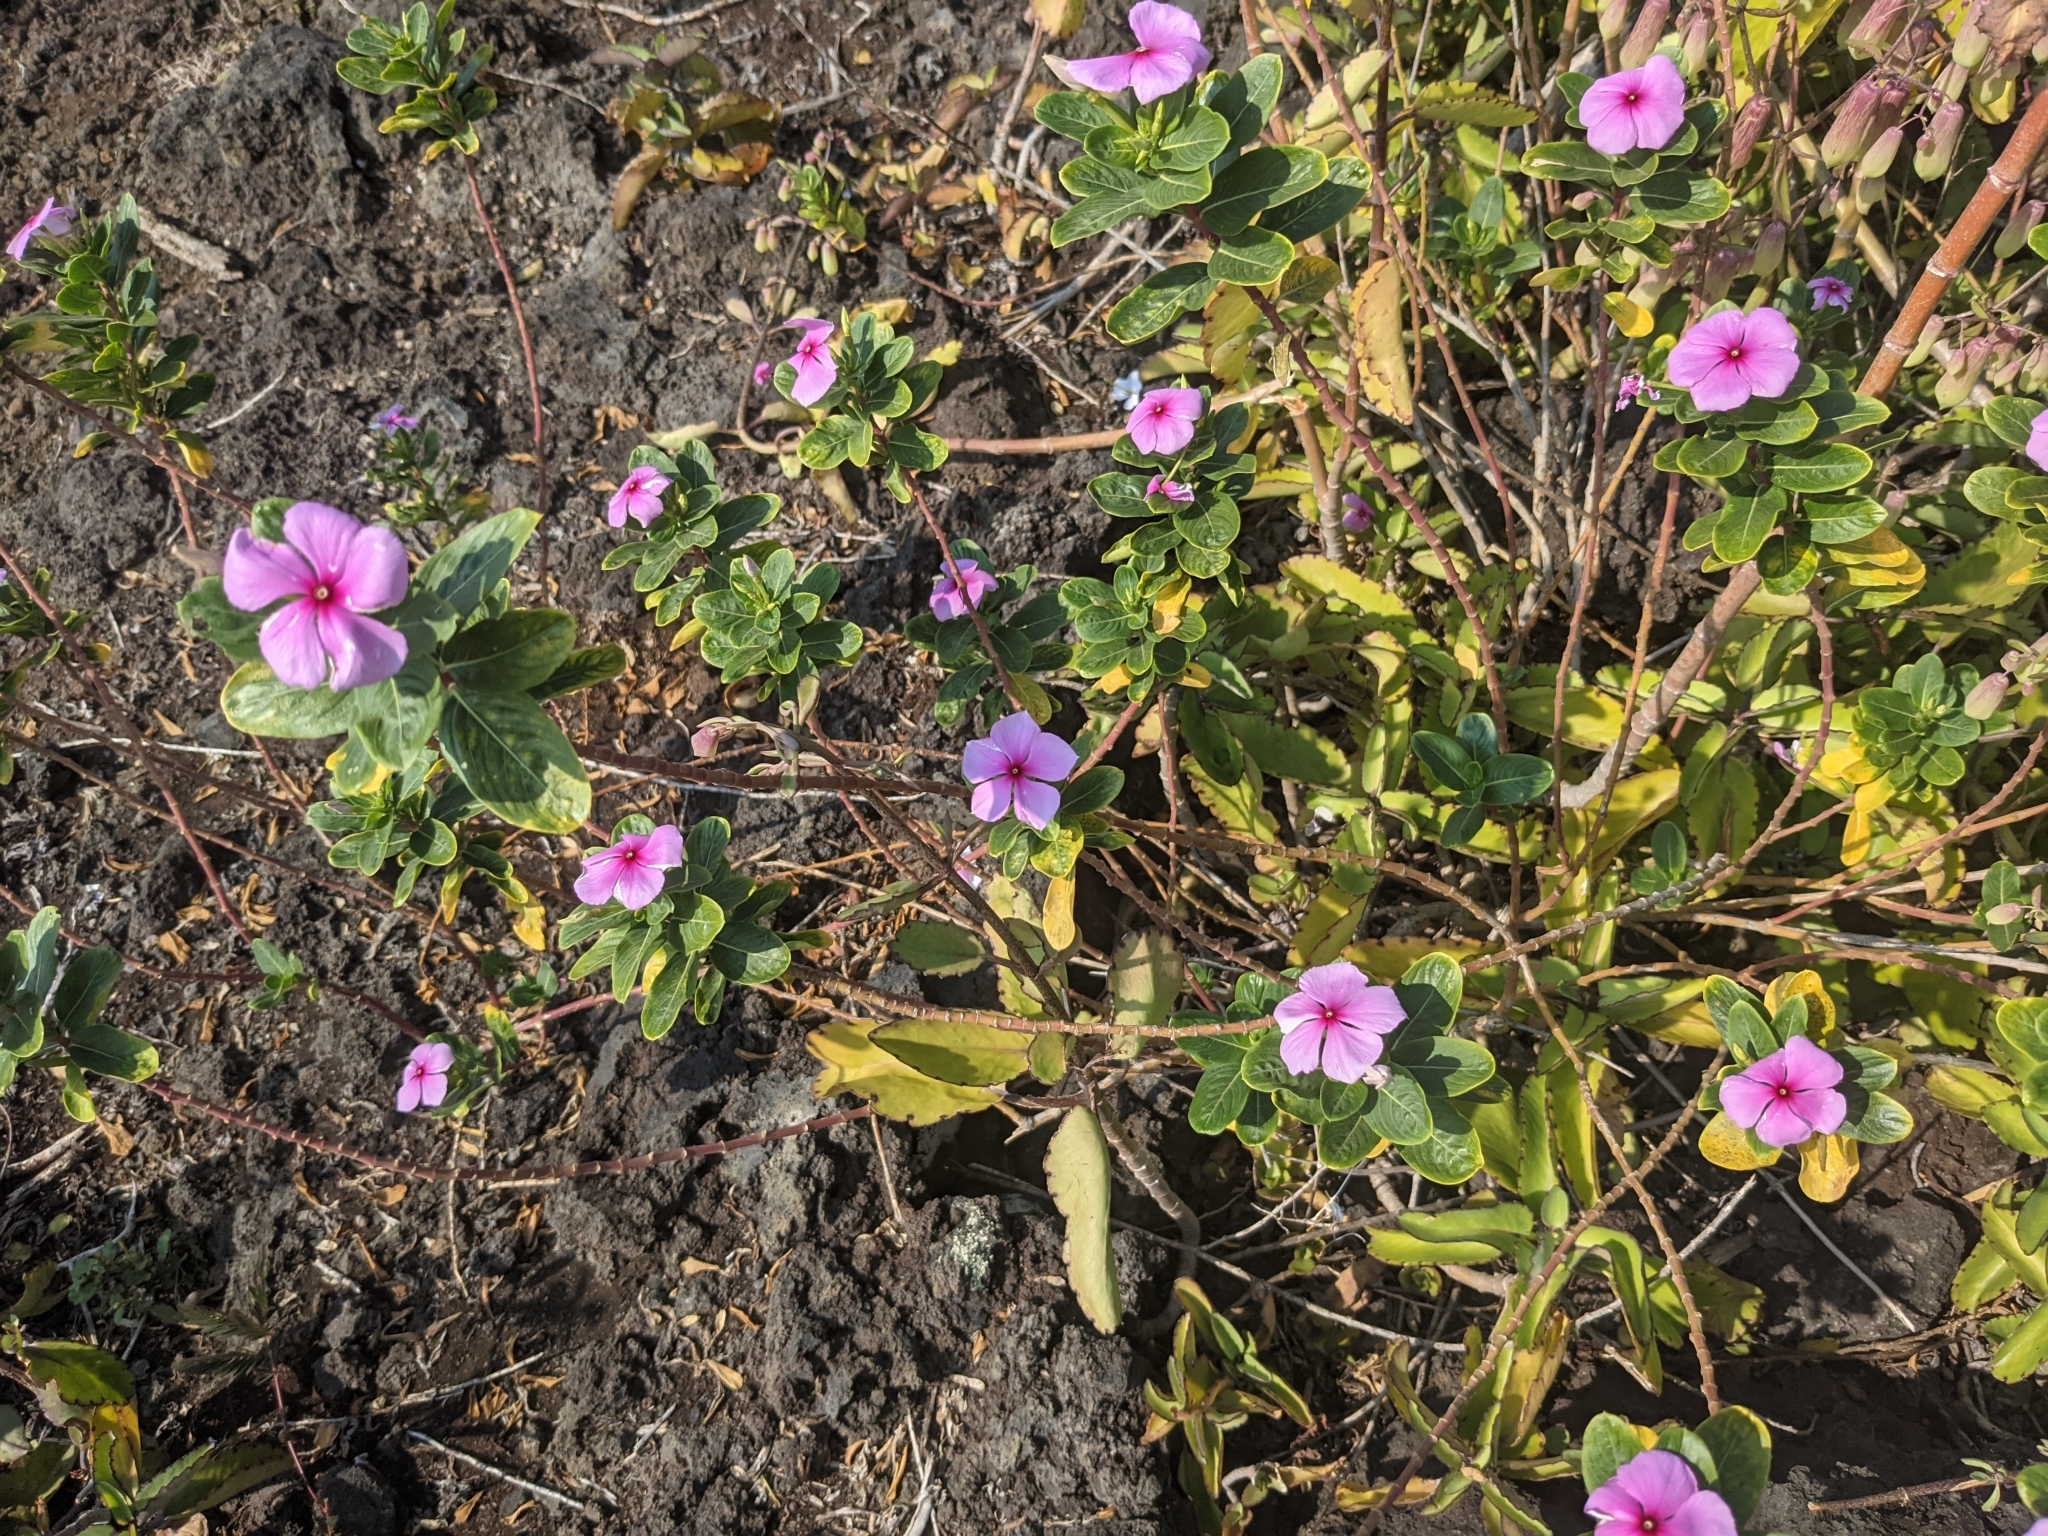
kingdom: Plantae
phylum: Tracheophyta
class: Magnoliopsida
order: Gentianales
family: Apocynaceae
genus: Catharanthus
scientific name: Catharanthus roseus
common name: Madagascar periwinkle
